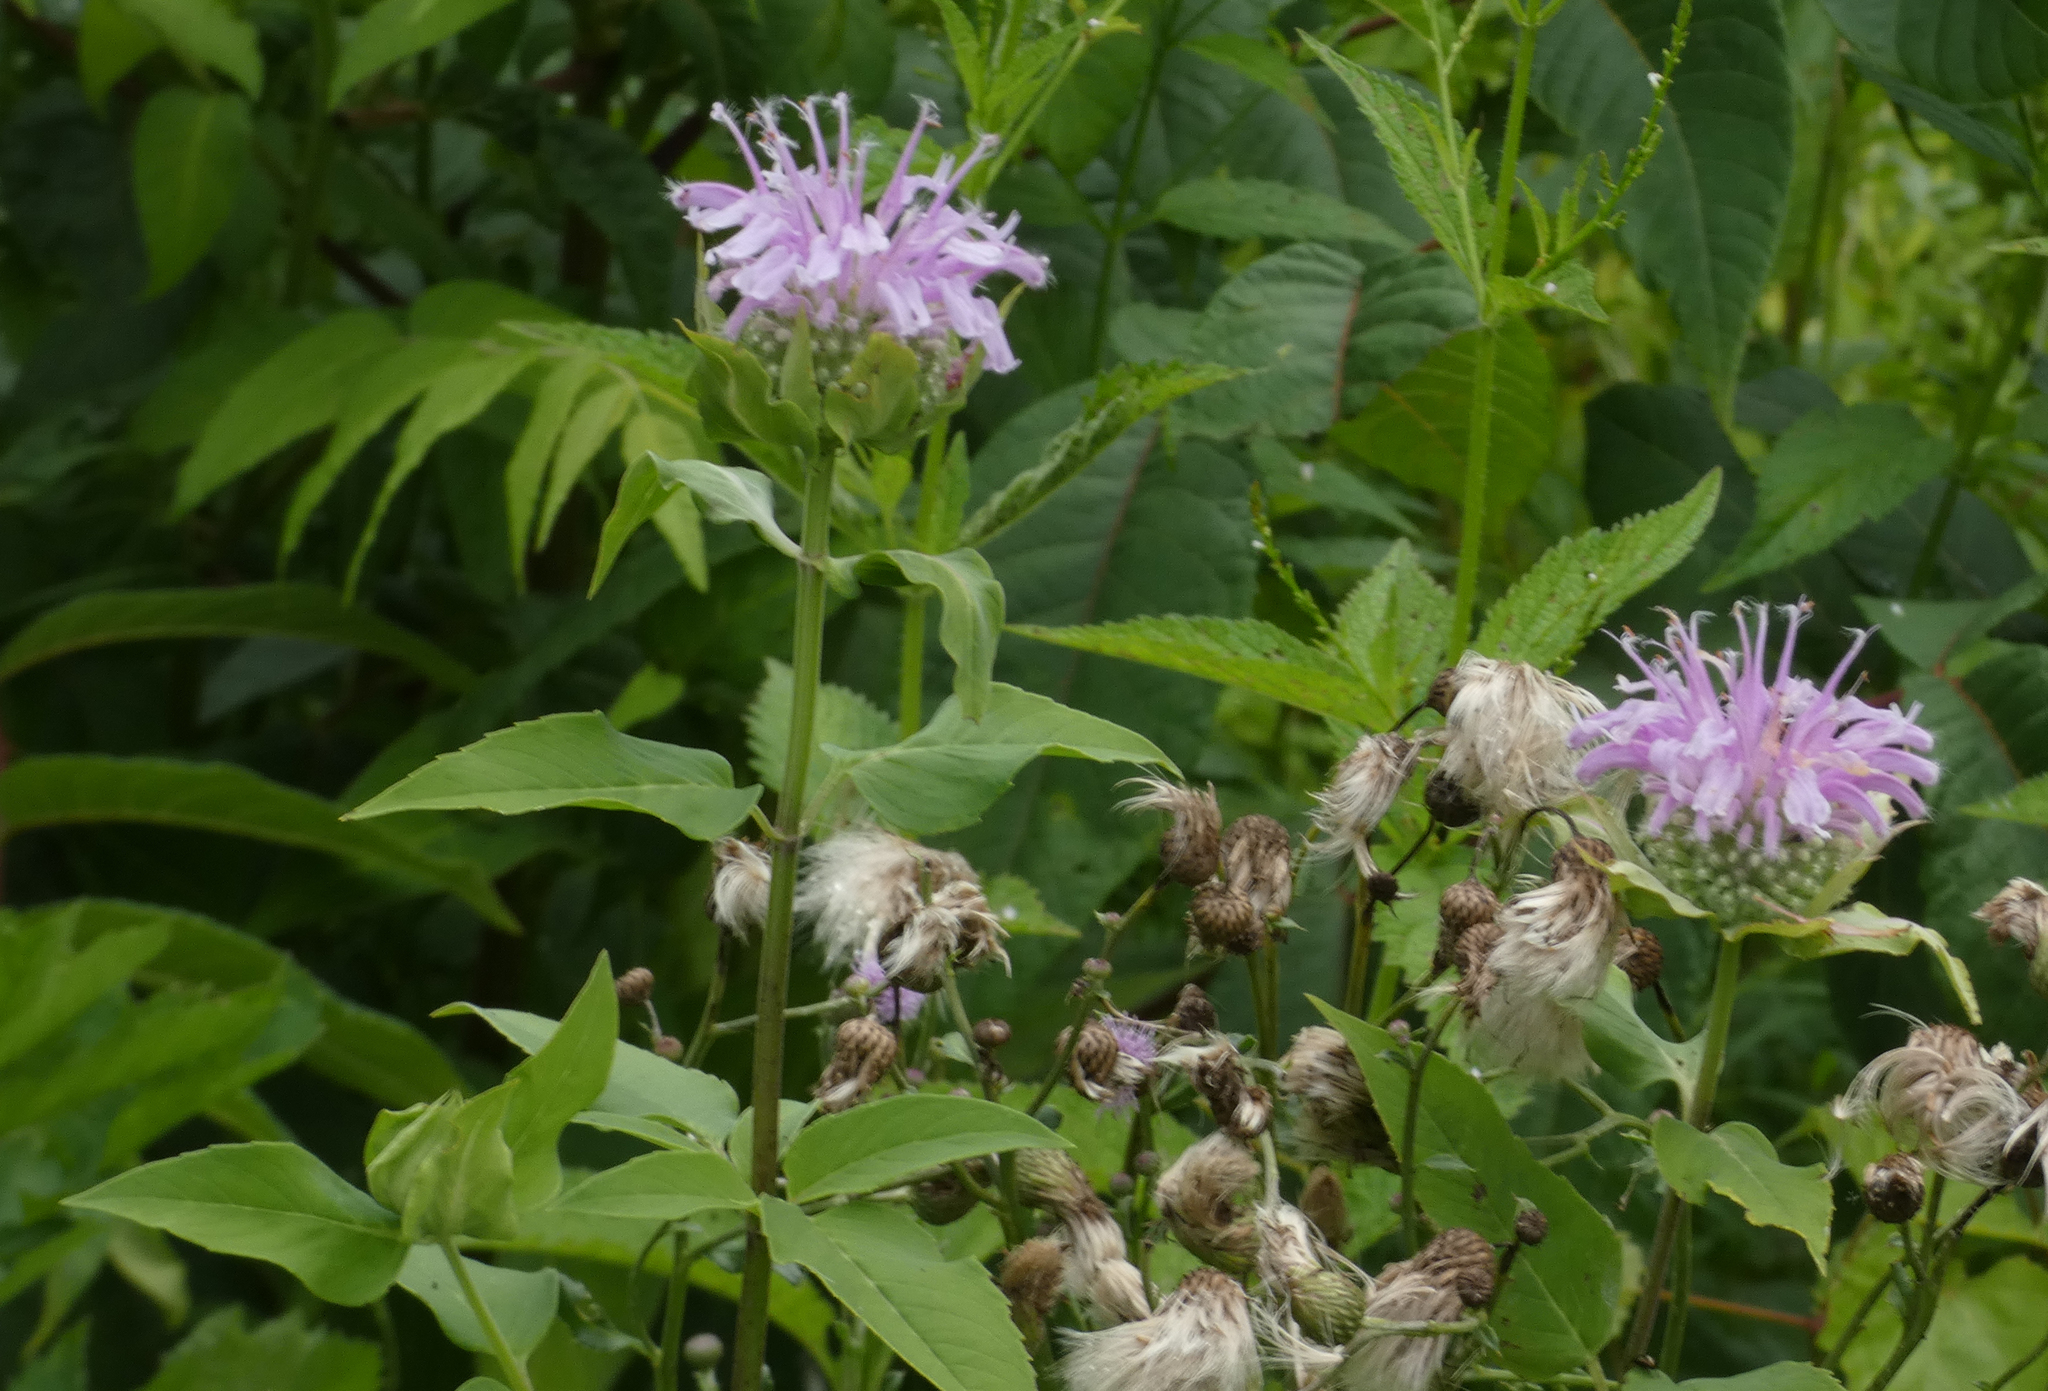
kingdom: Plantae
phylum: Tracheophyta
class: Magnoliopsida
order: Lamiales
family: Lamiaceae
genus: Monarda
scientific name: Monarda fistulosa
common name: Purple beebalm
